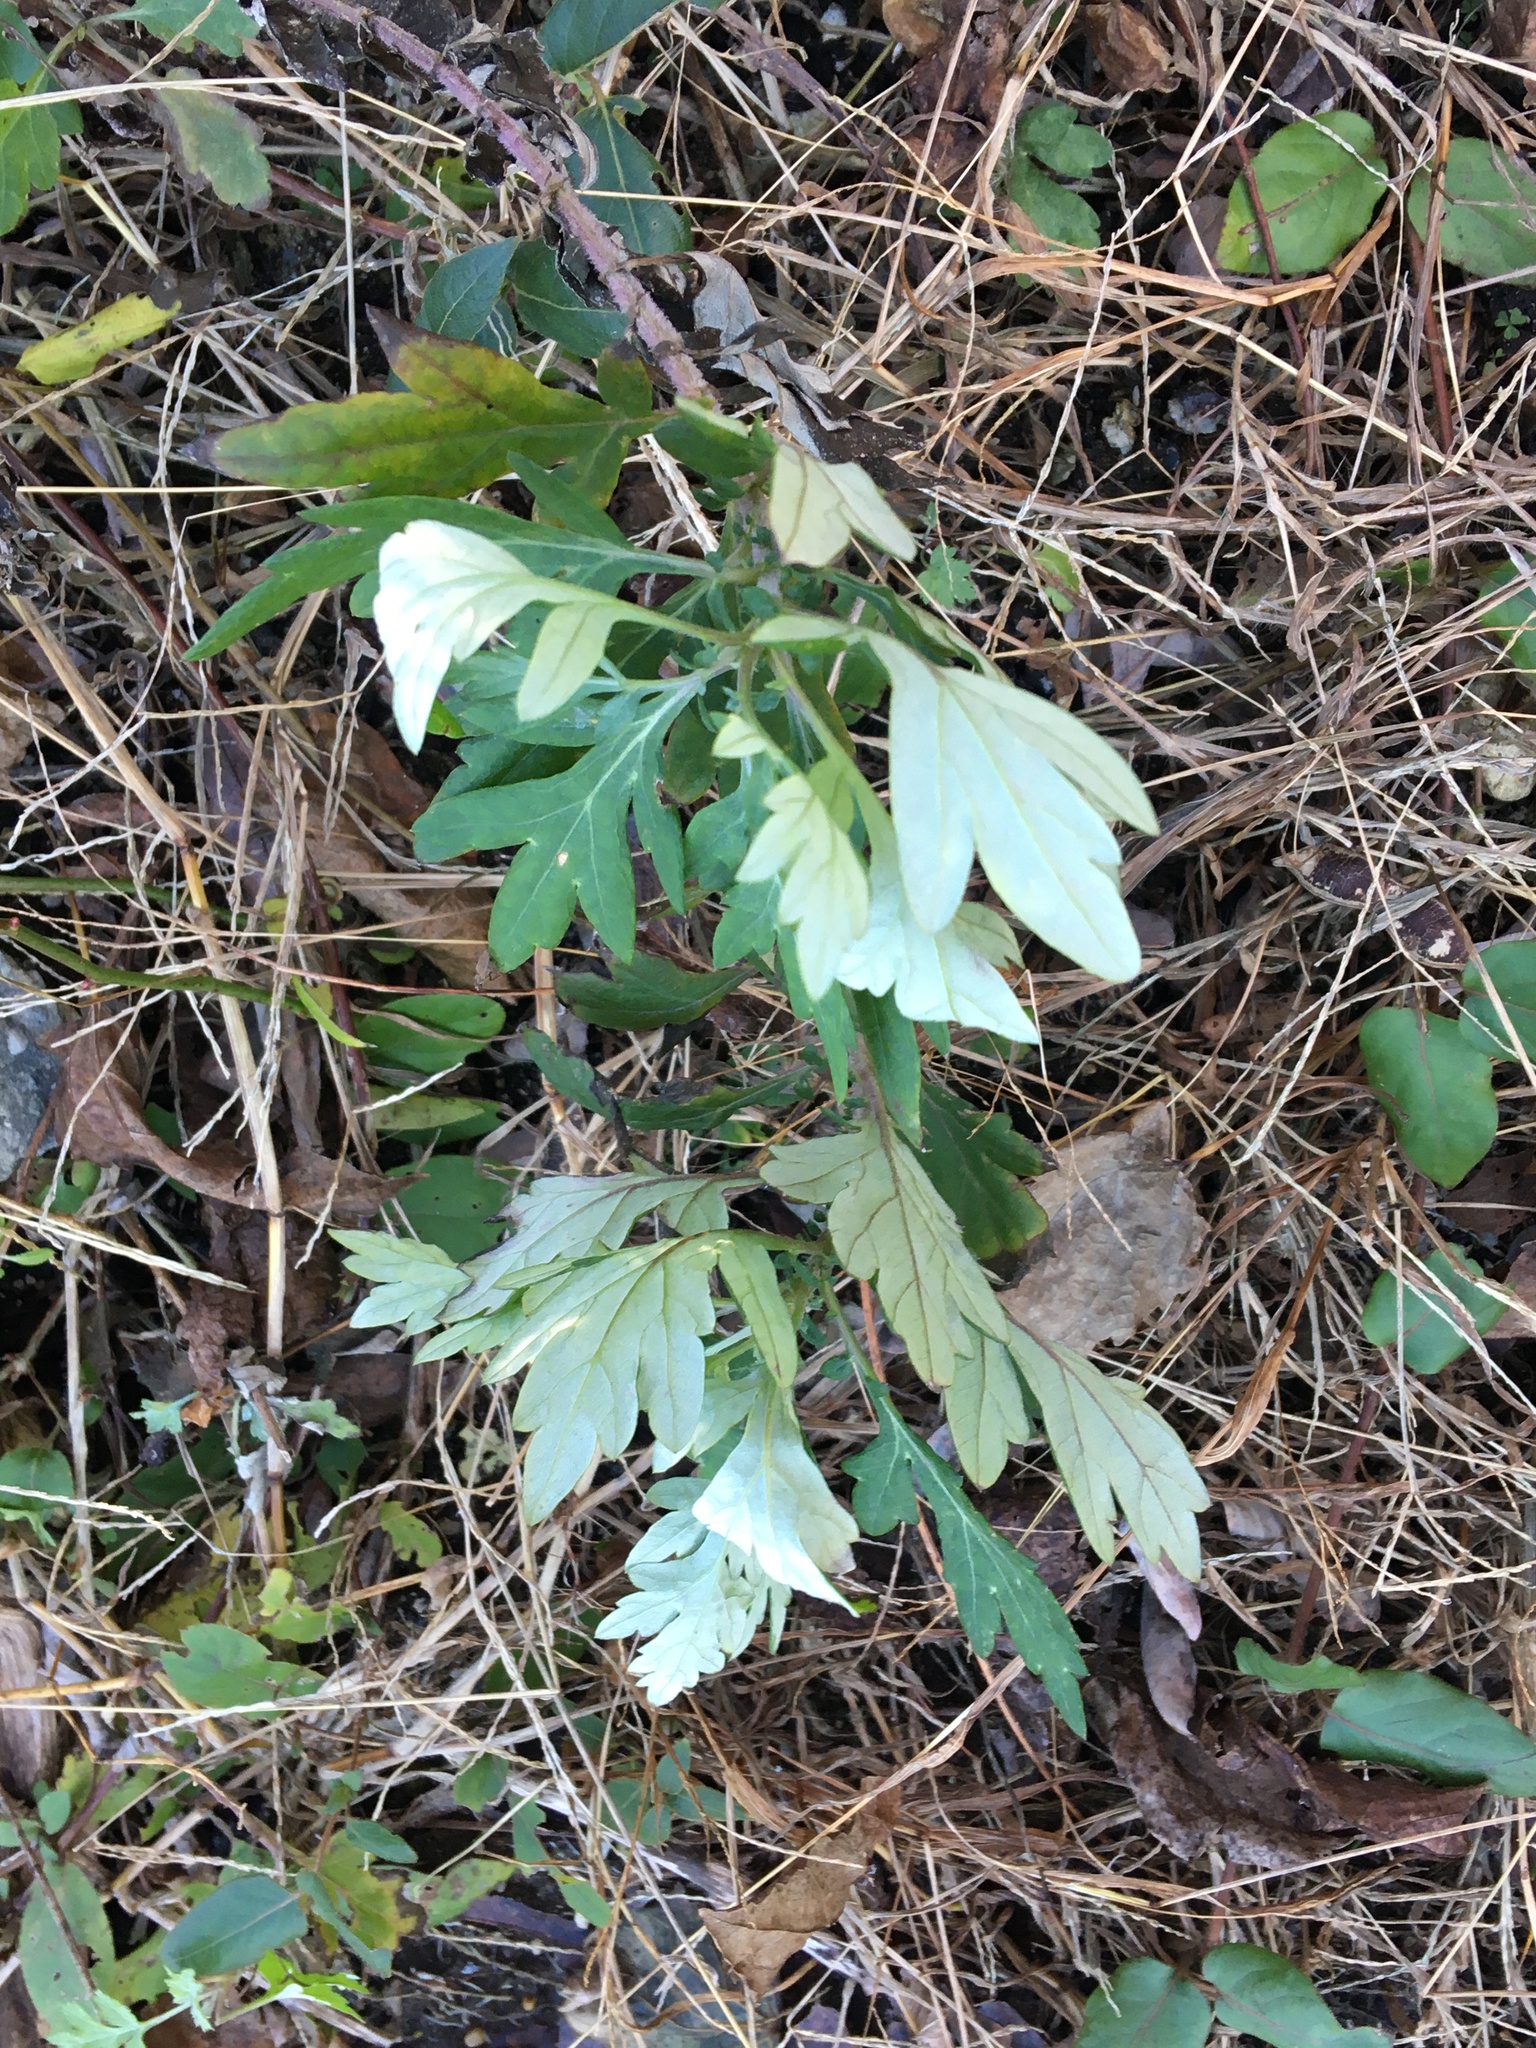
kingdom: Plantae
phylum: Tracheophyta
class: Magnoliopsida
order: Asterales
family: Asteraceae
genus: Artemisia
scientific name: Artemisia vulgaris
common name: Mugwort
